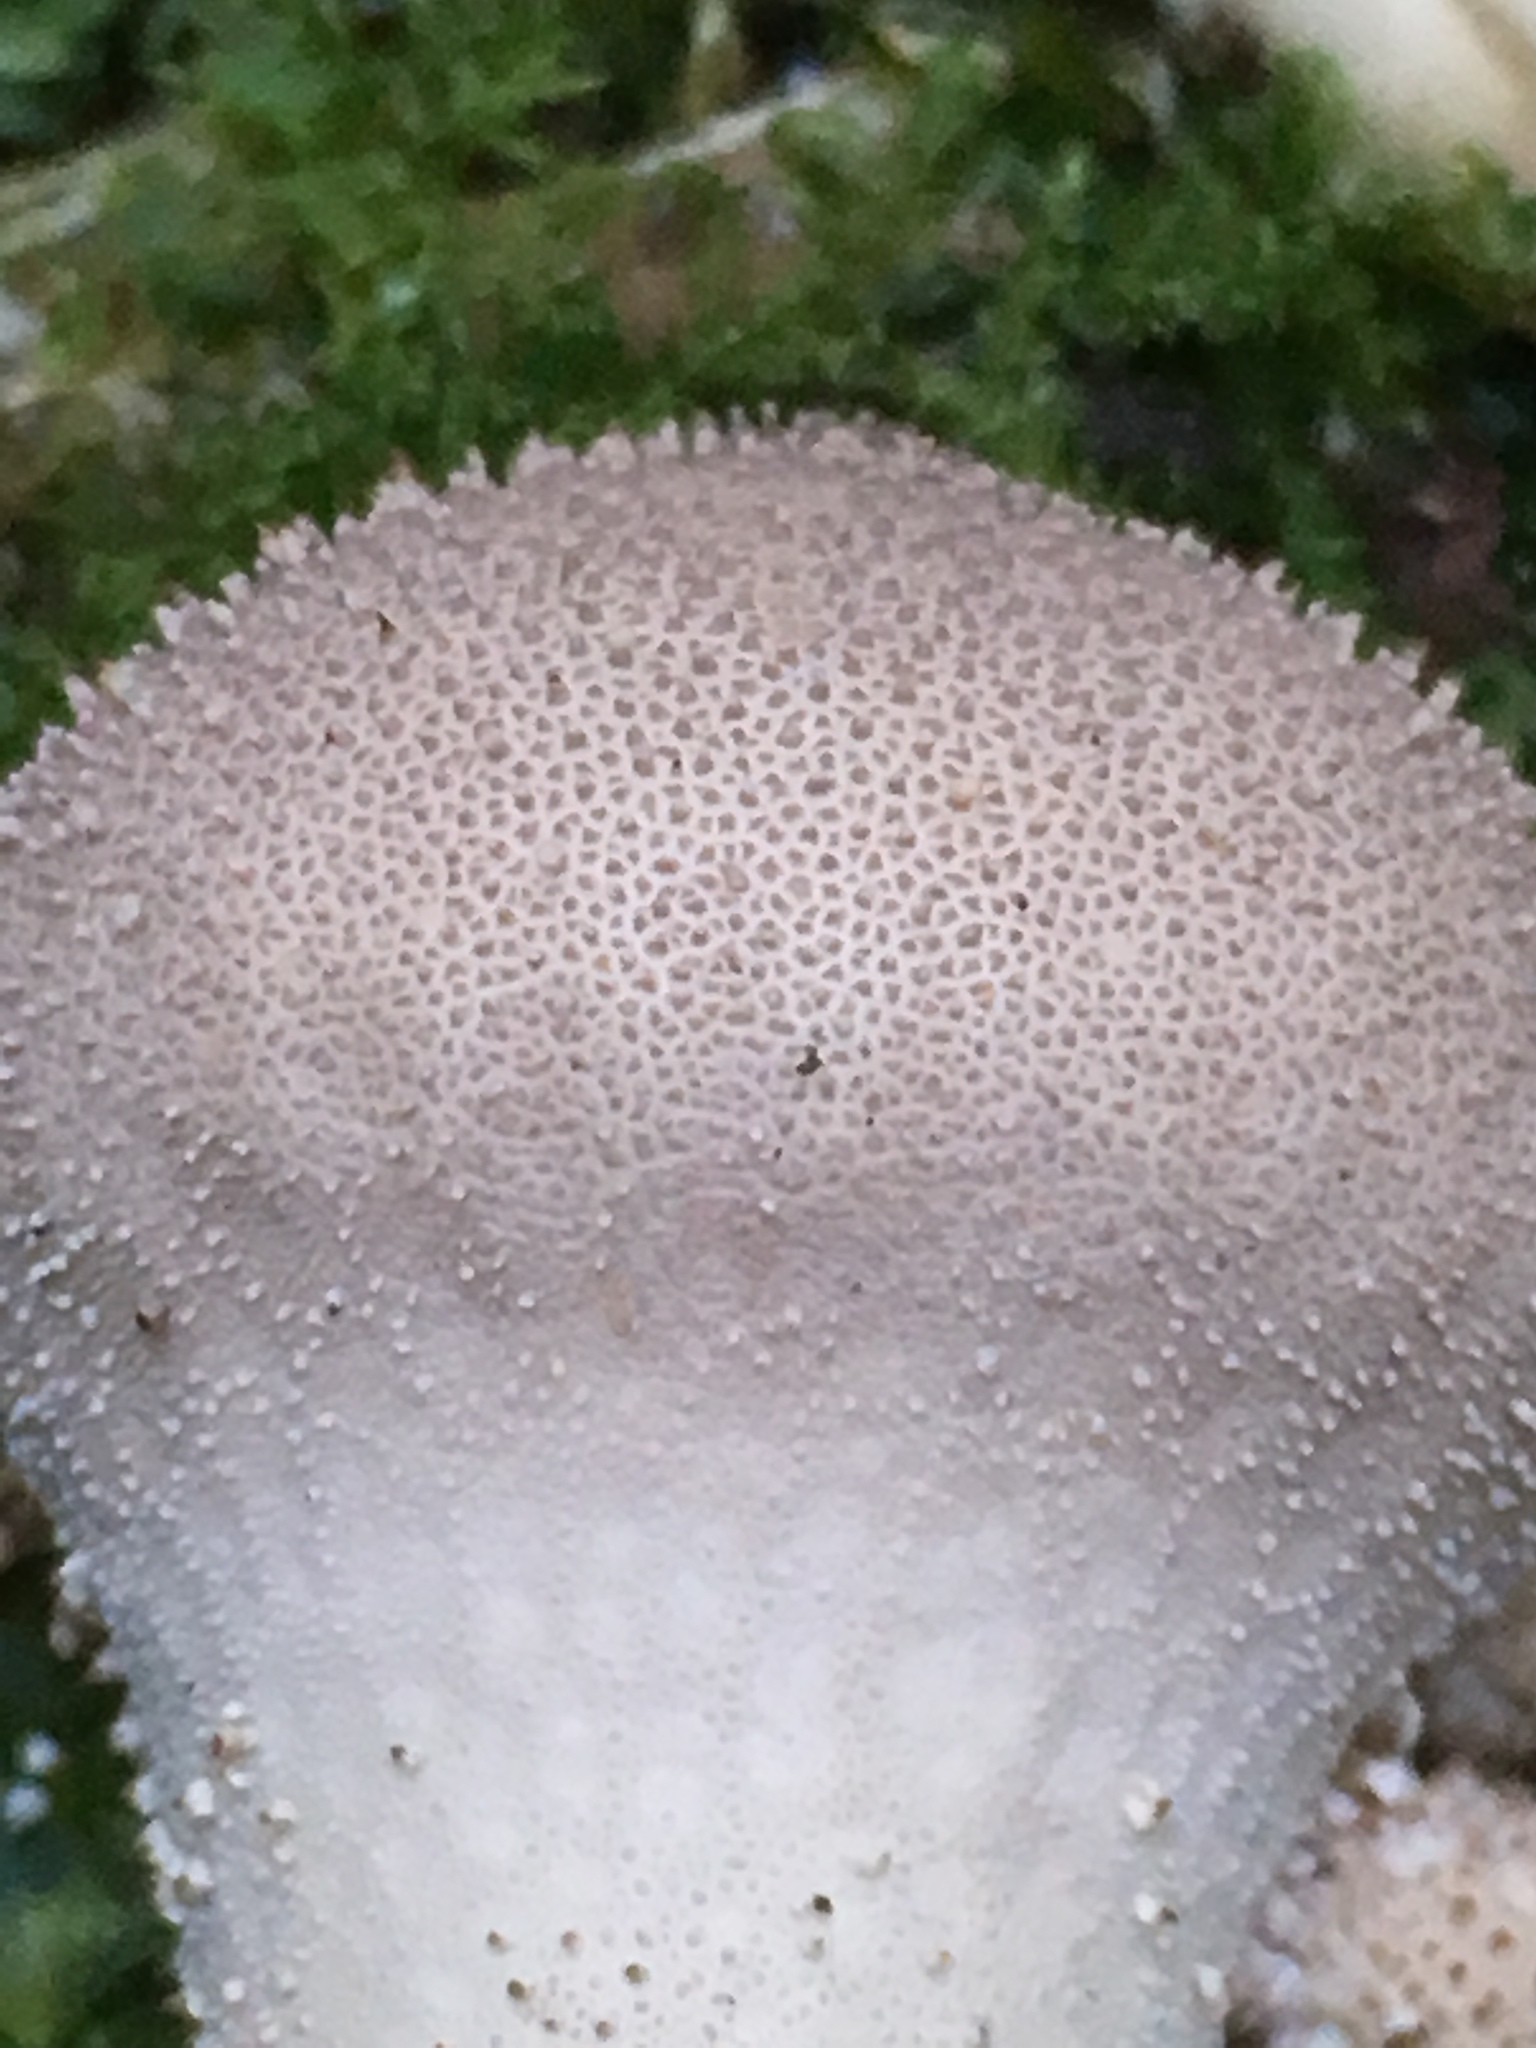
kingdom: Fungi
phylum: Basidiomycota
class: Agaricomycetes
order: Agaricales
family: Lycoperdaceae
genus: Lycoperdon
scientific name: Lycoperdon perlatum
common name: Common puffball
